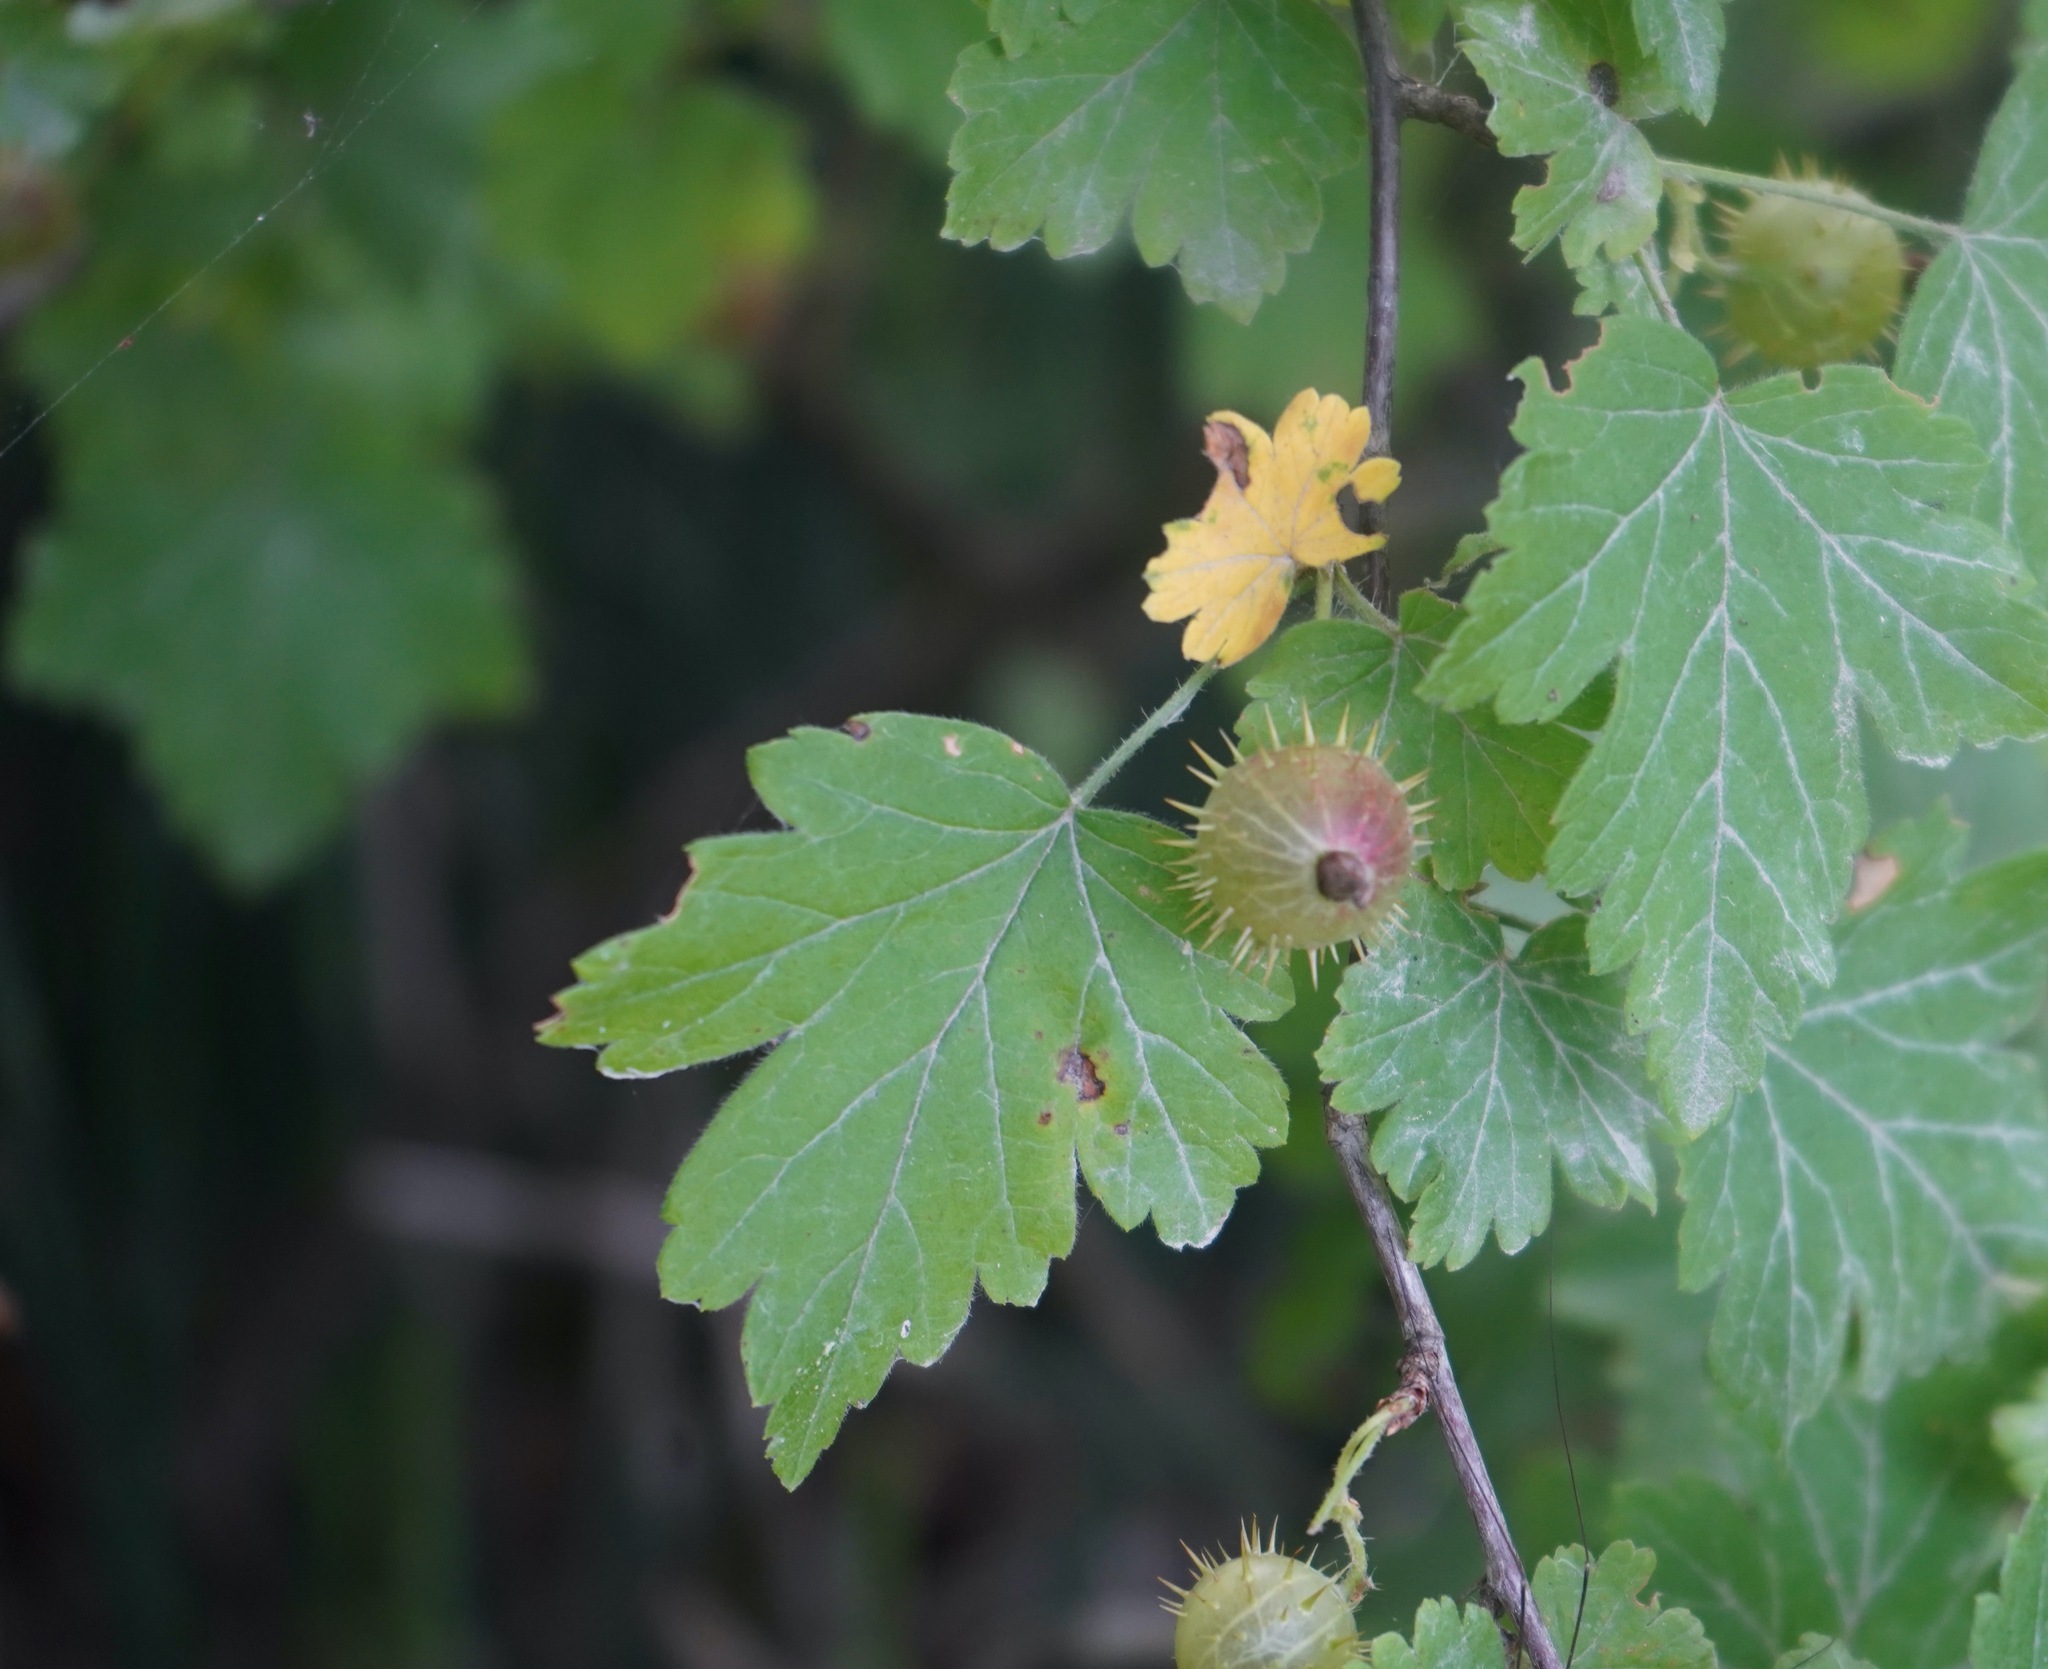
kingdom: Plantae
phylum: Tracheophyta
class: Magnoliopsida
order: Saxifragales
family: Grossulariaceae
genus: Ribes
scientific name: Ribes cynosbati
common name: American gooseberry
